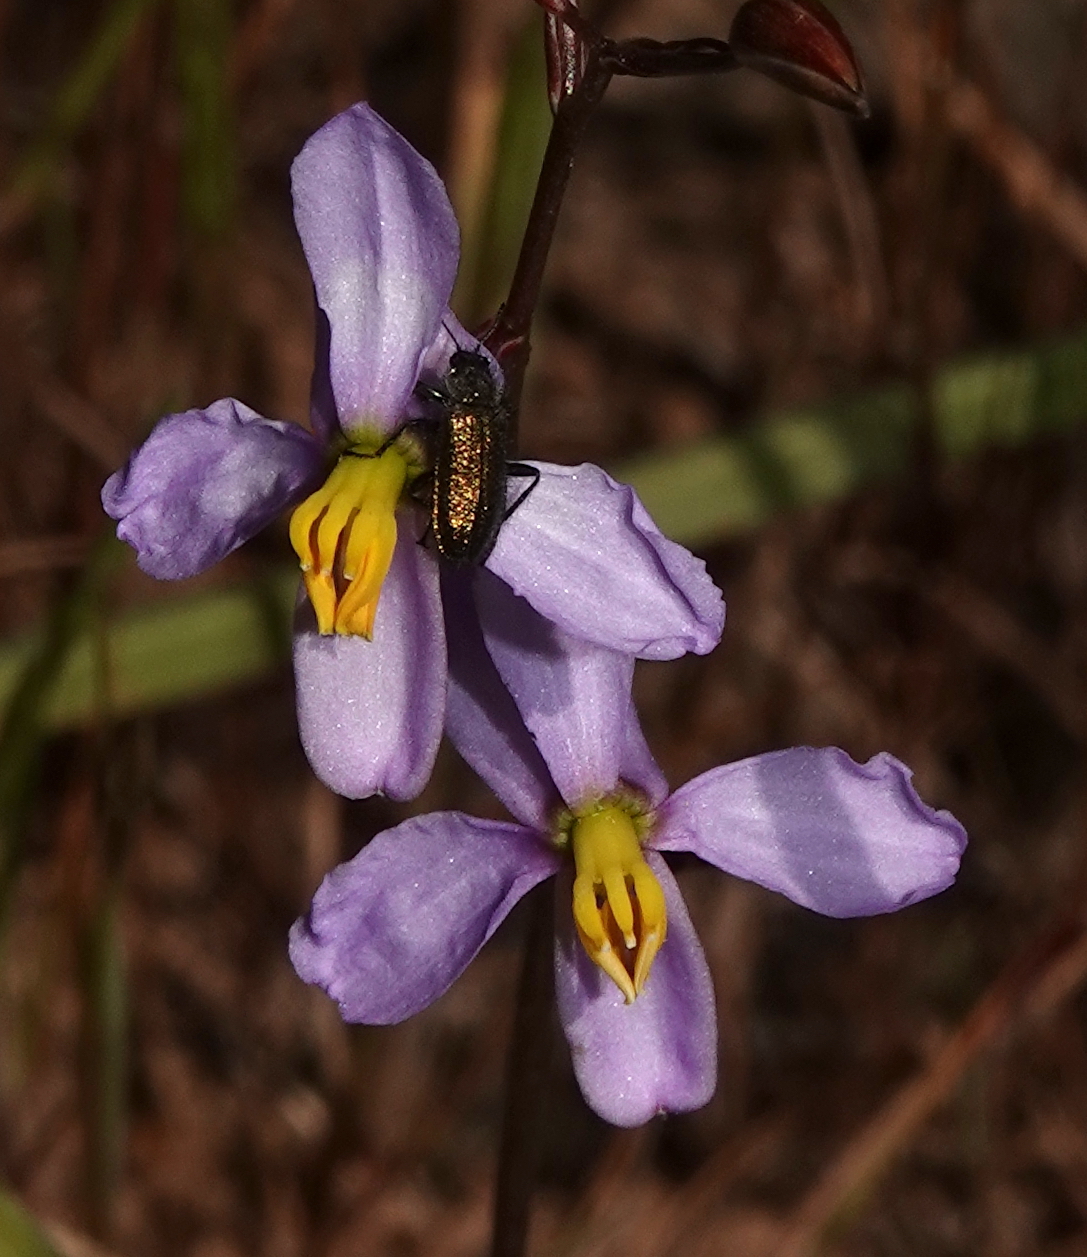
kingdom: Plantae
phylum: Tracheophyta
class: Liliopsida
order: Asparagales
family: Tecophilaeaceae
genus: Cyanella
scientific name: Cyanella hyacinthoides
